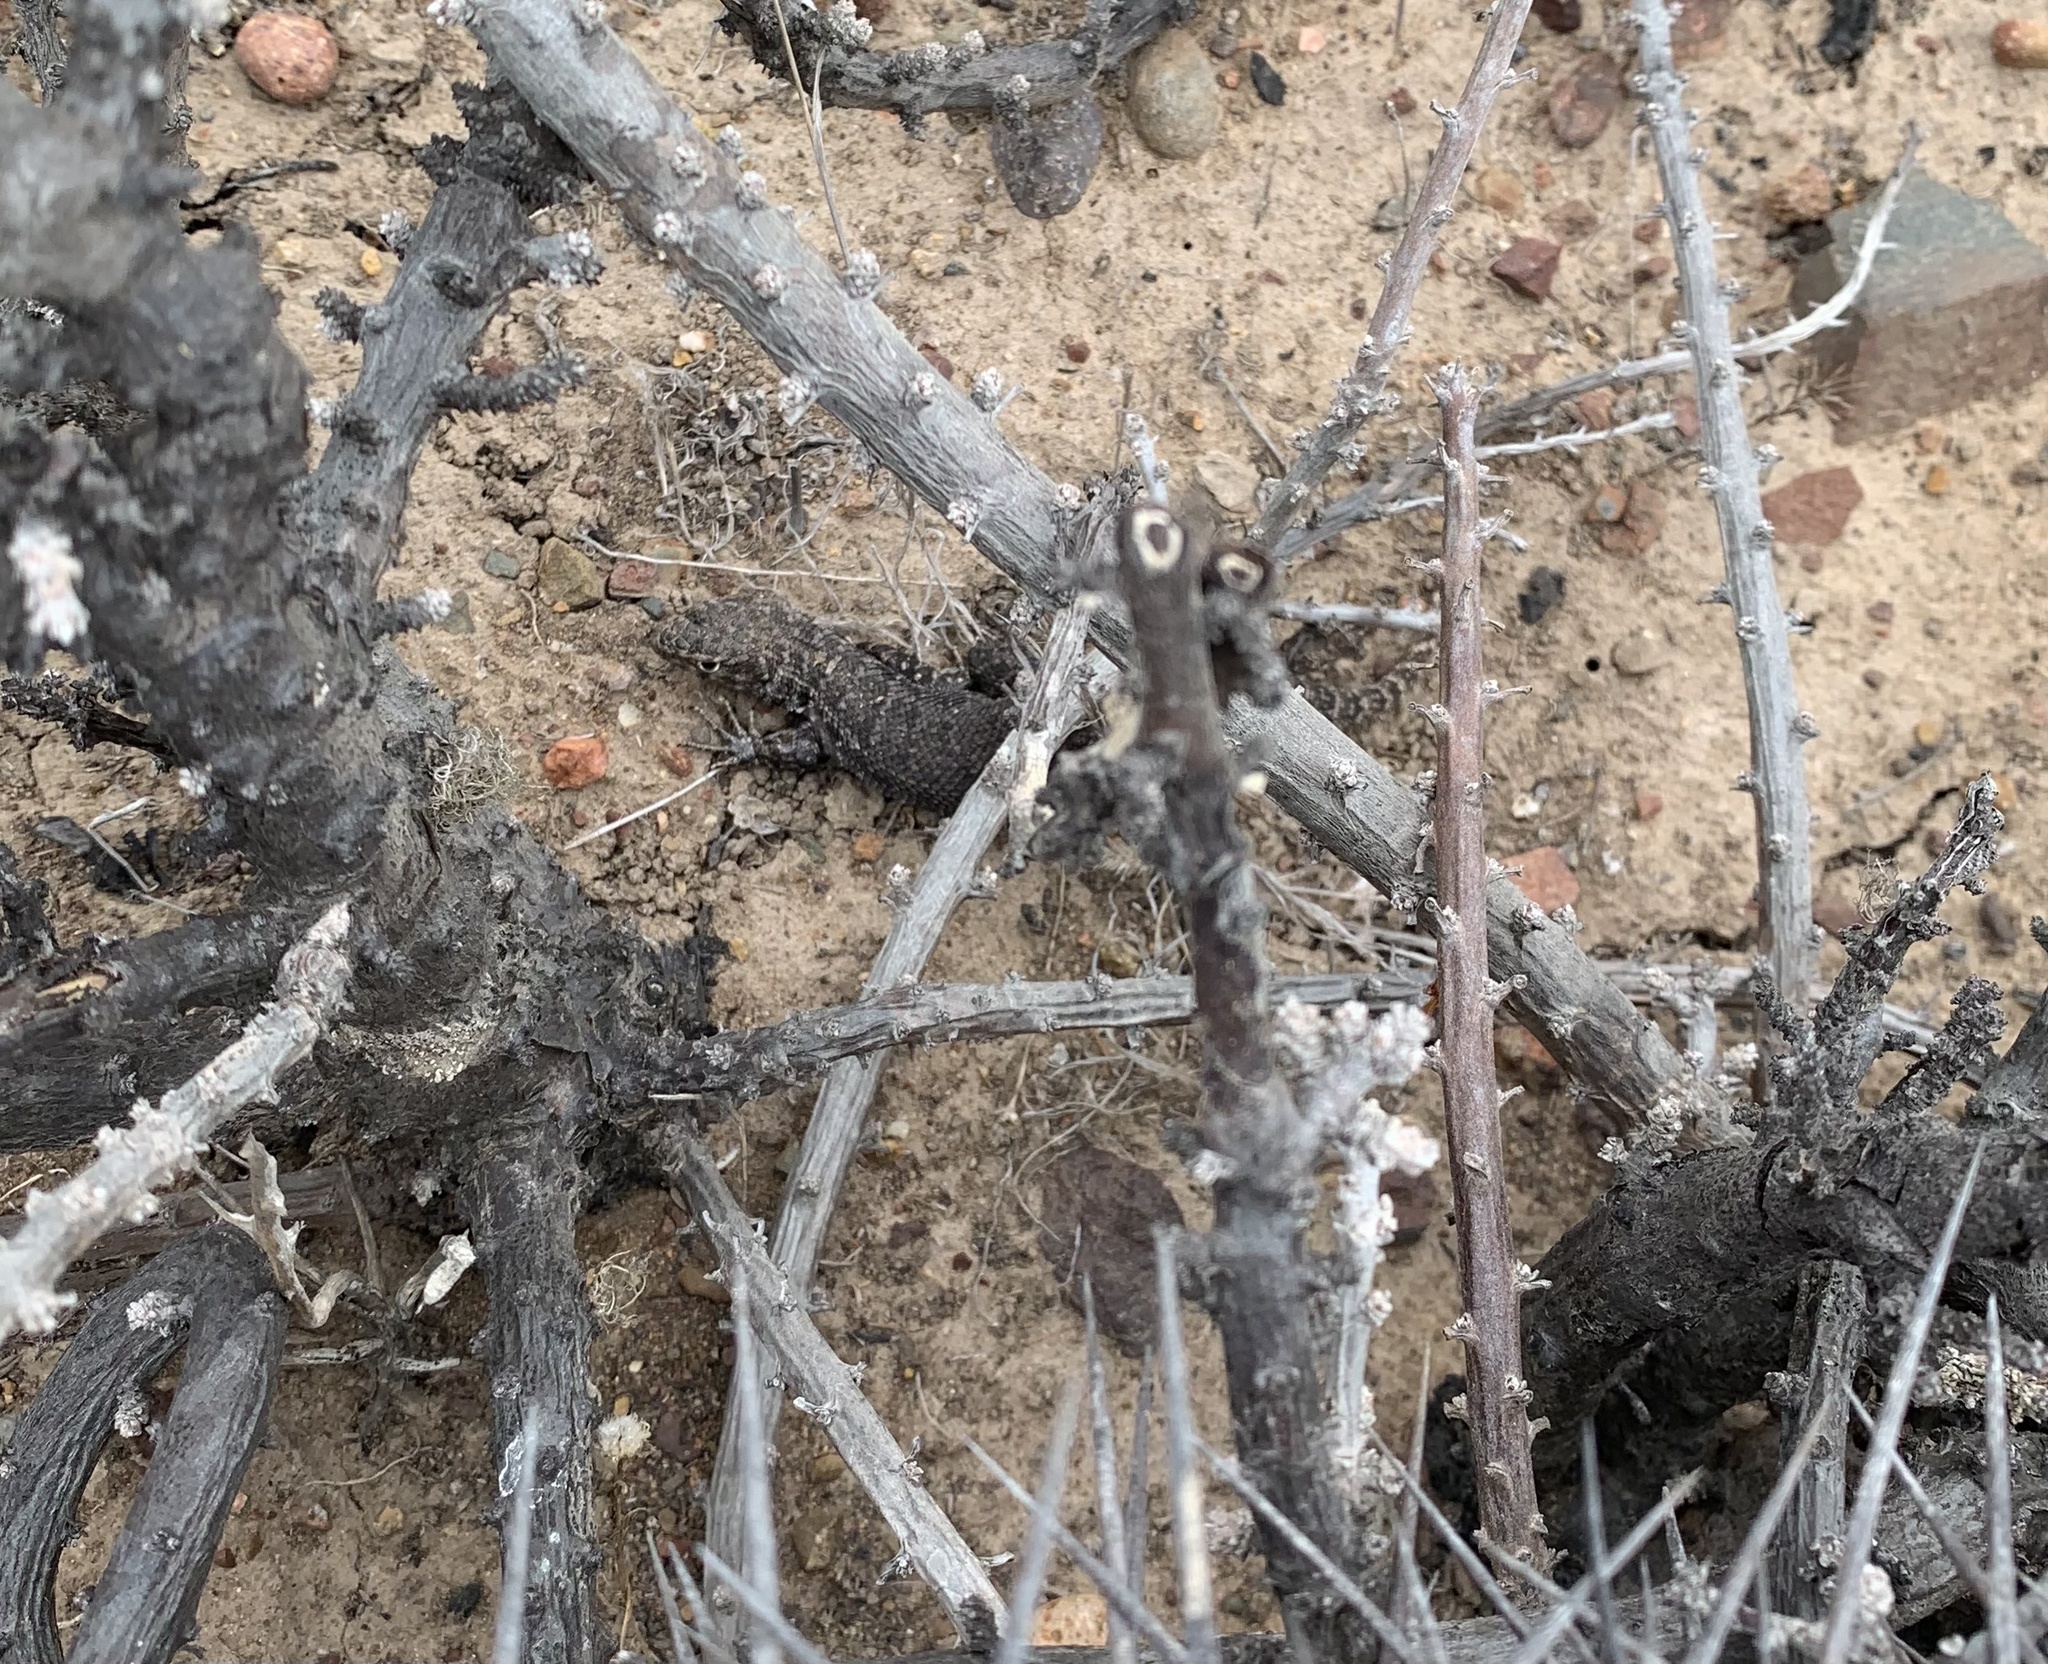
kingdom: Animalia
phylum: Chordata
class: Squamata
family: Liolaemidae
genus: Liolaemus
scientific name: Liolaemus nitidus
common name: Shining tree iguana
